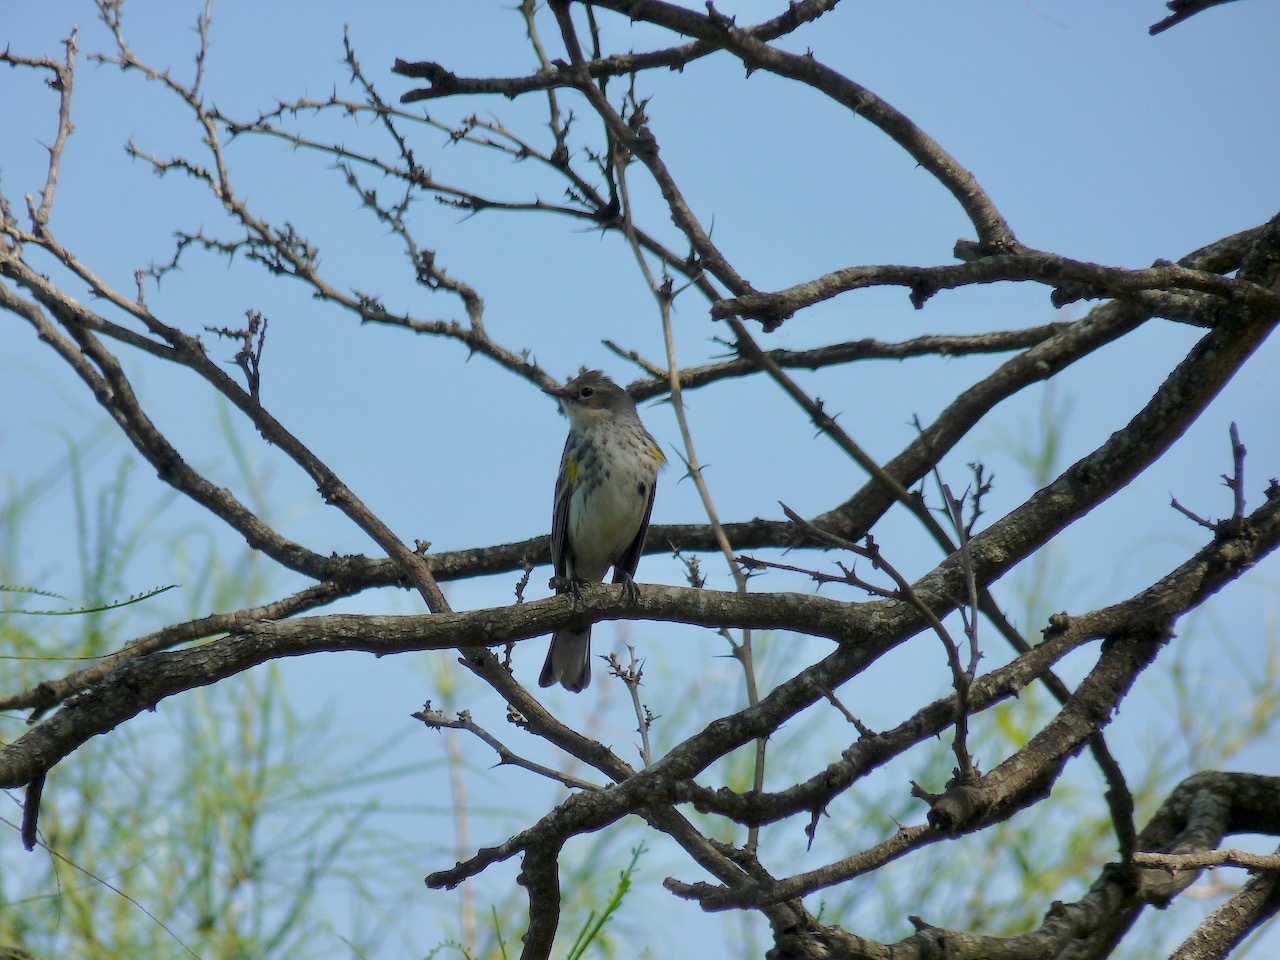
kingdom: Animalia
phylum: Chordata
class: Aves
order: Passeriformes
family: Parulidae
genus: Setophaga
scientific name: Setophaga coronata
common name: Myrtle warbler
